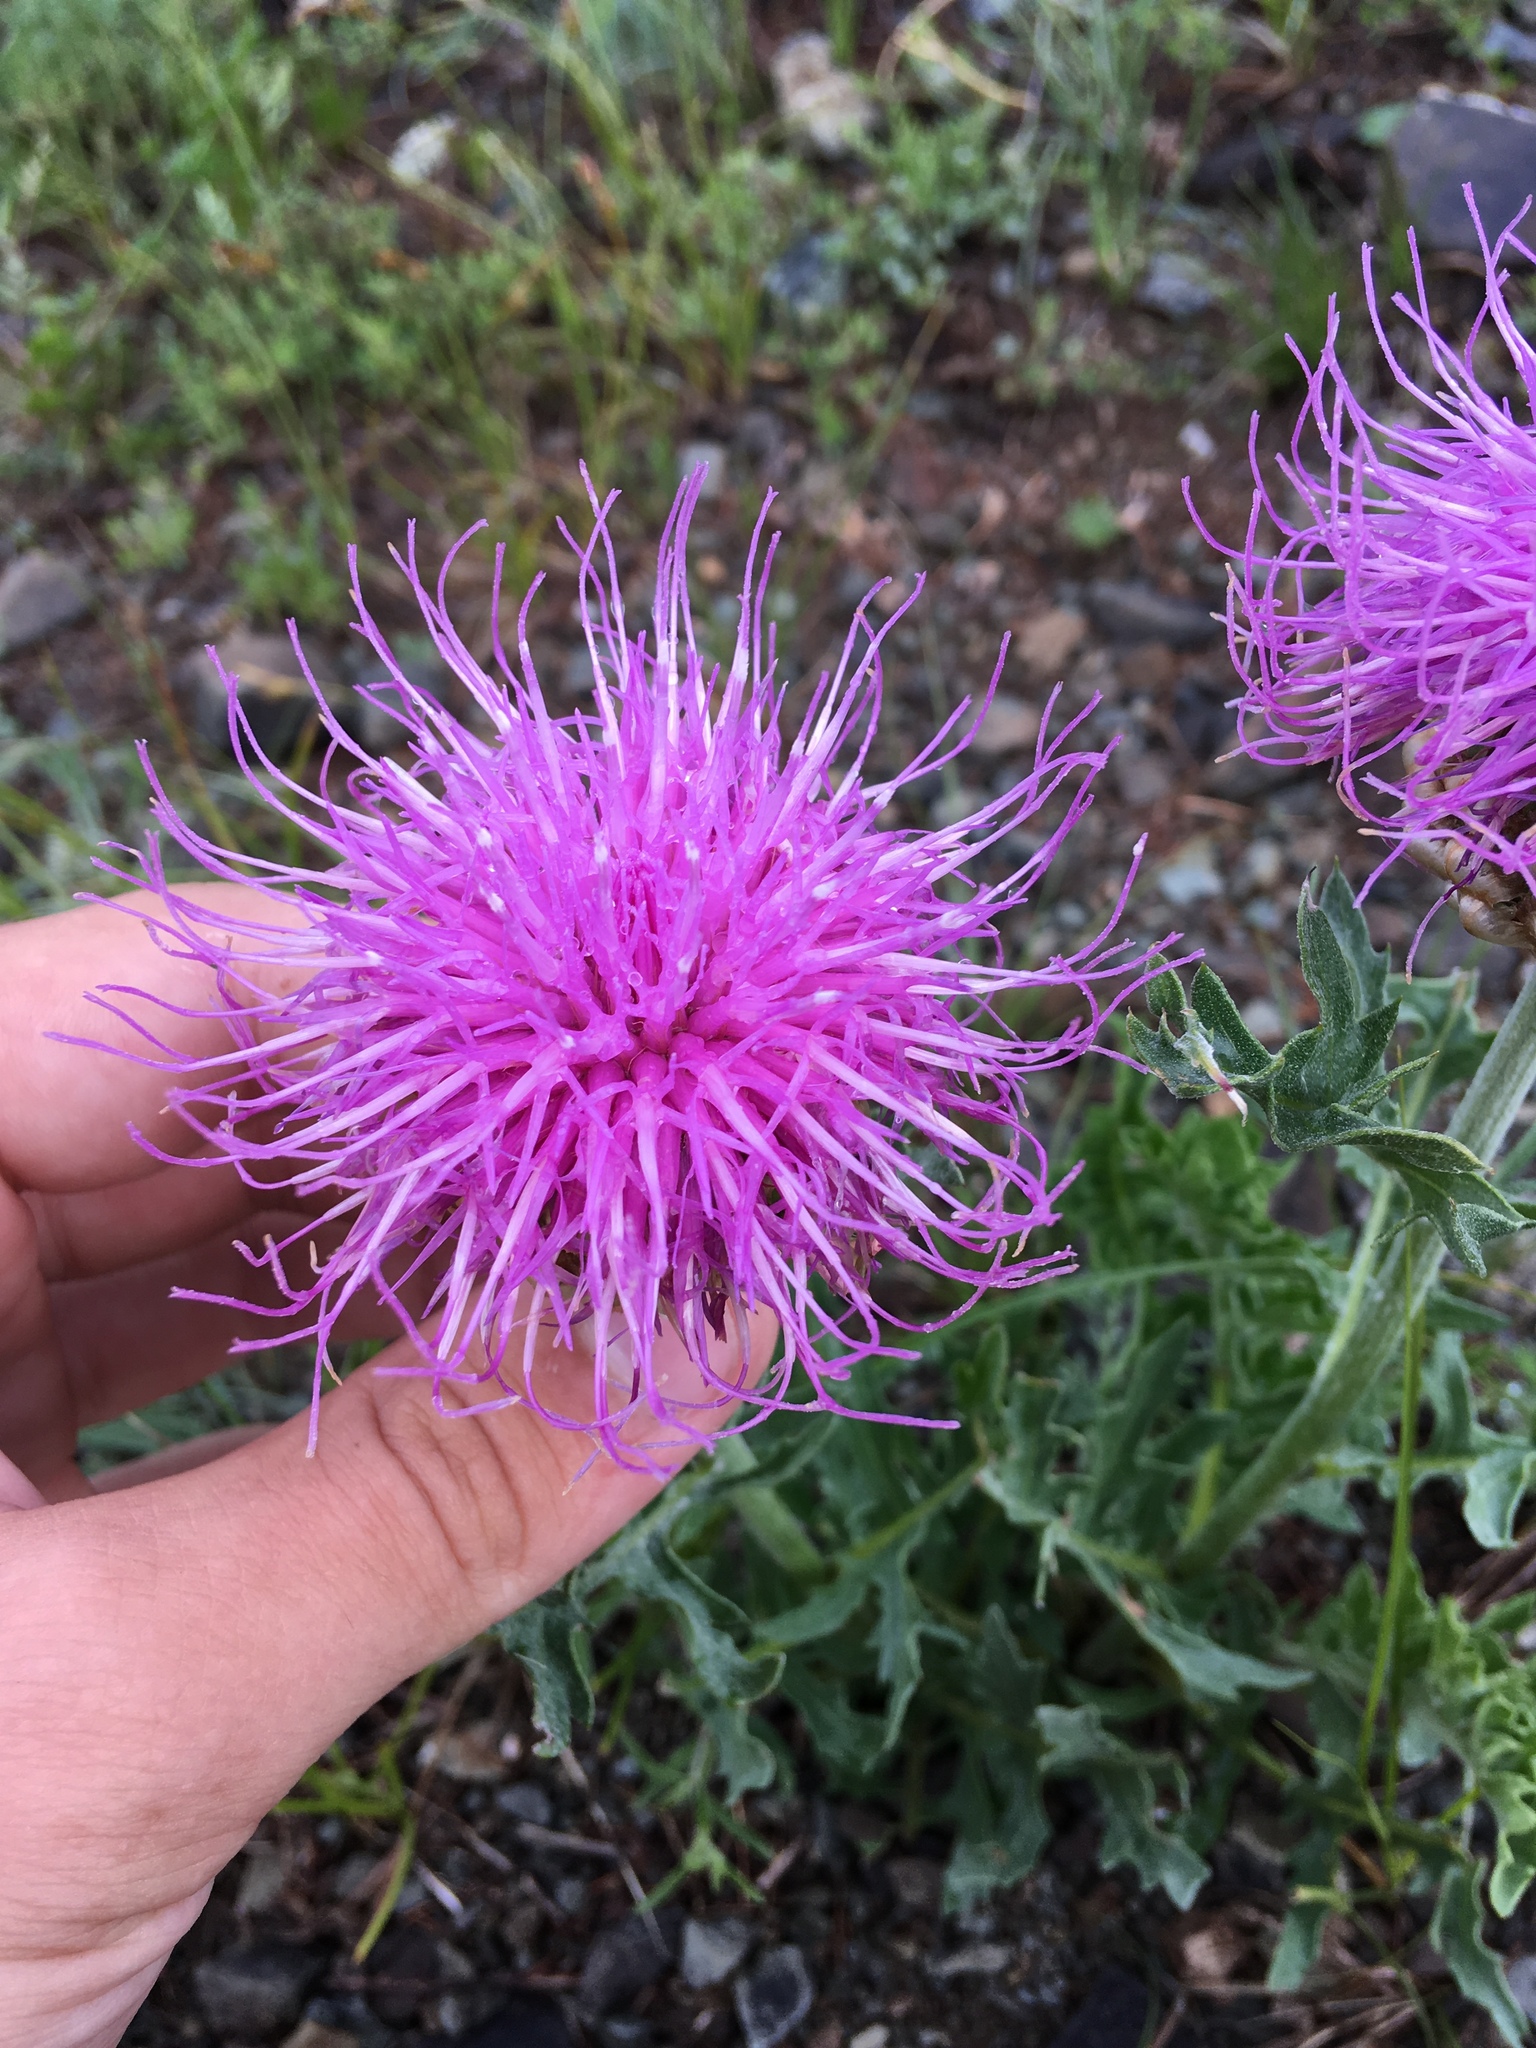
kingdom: Plantae
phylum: Tracheophyta
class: Magnoliopsida
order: Asterales
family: Asteraceae
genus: Leuzea
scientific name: Leuzea uniflora
